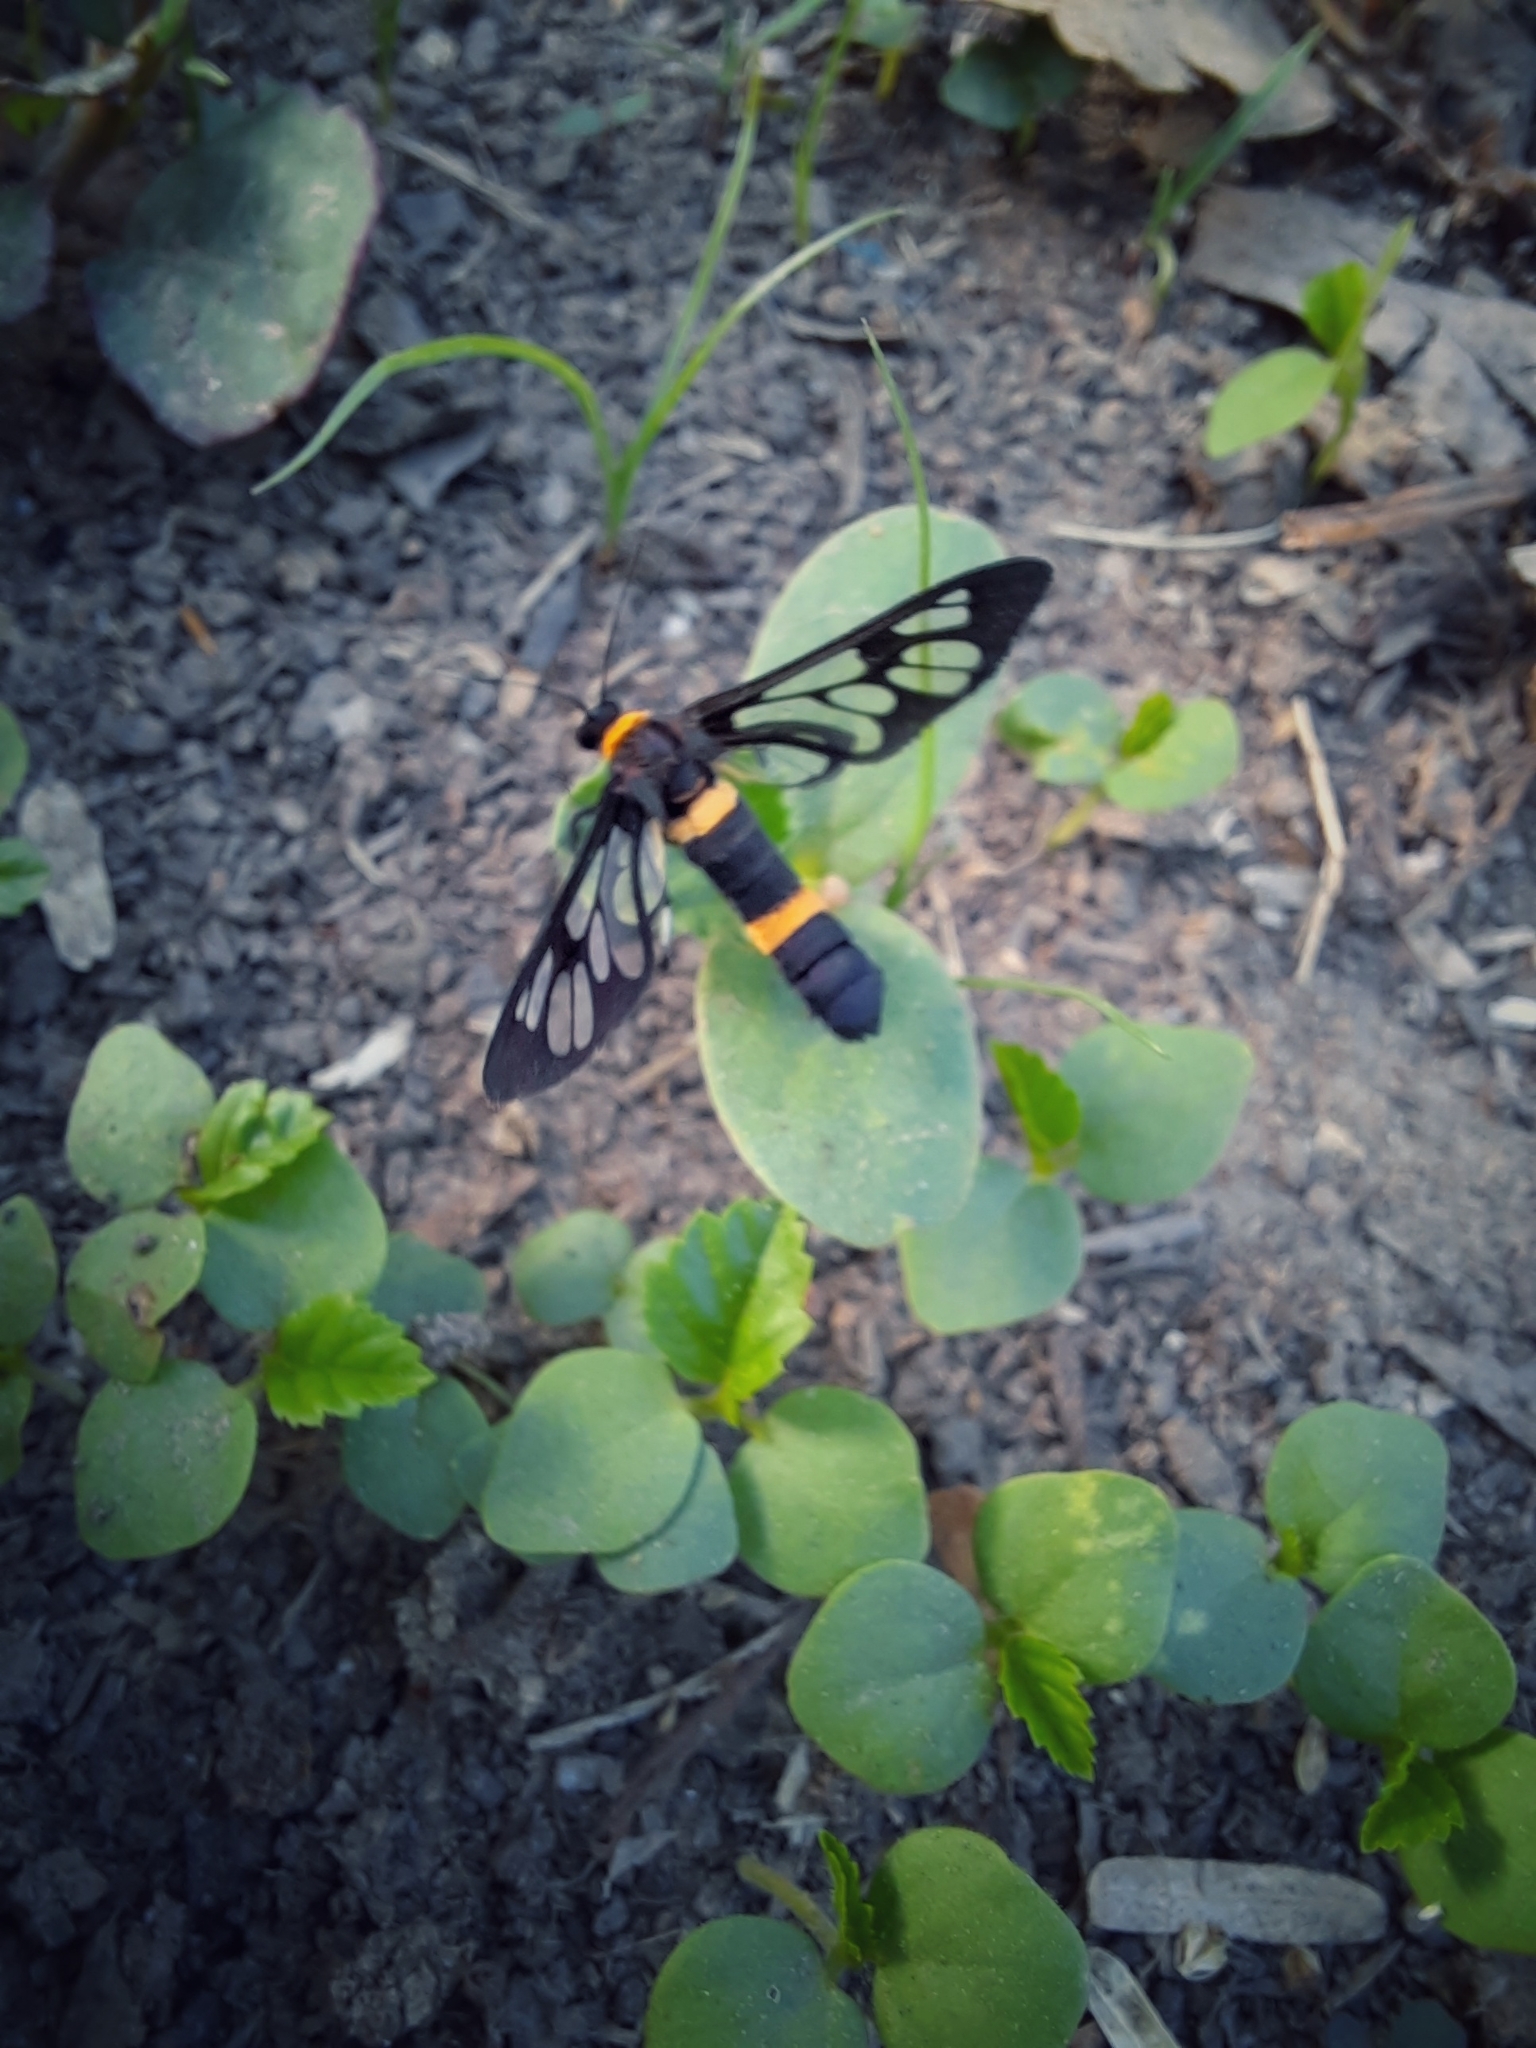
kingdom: Animalia
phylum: Arthropoda
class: Insecta
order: Lepidoptera
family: Erebidae
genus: Syntomoides
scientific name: Syntomoides imaon
